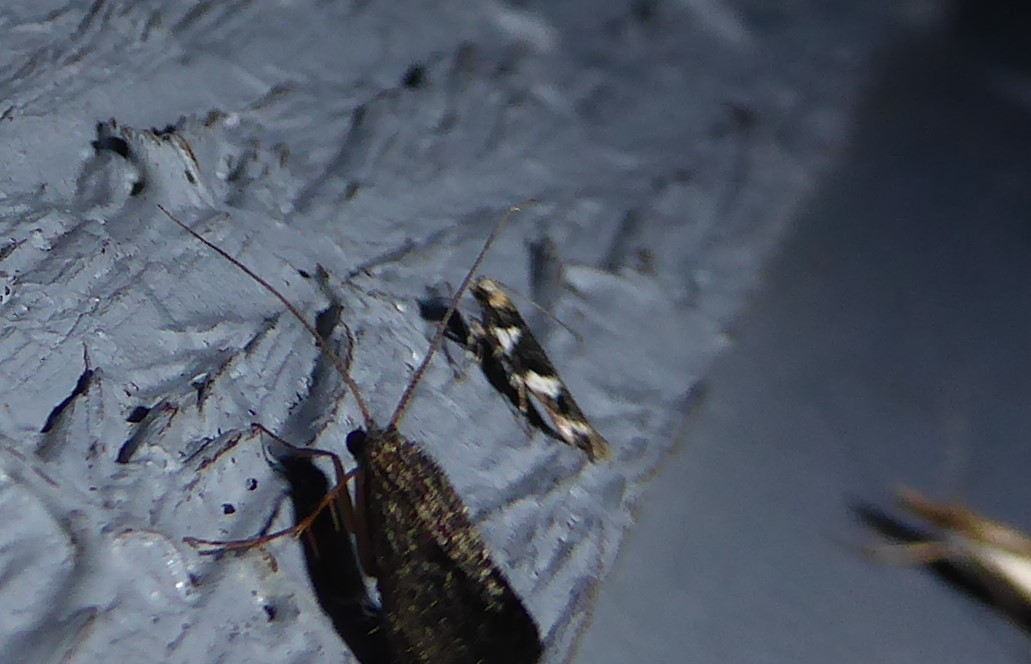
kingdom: Animalia
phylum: Arthropoda
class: Insecta
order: Lepidoptera
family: Cosmopterigidae
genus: Pyroderces
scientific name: Pyroderces deamatella
